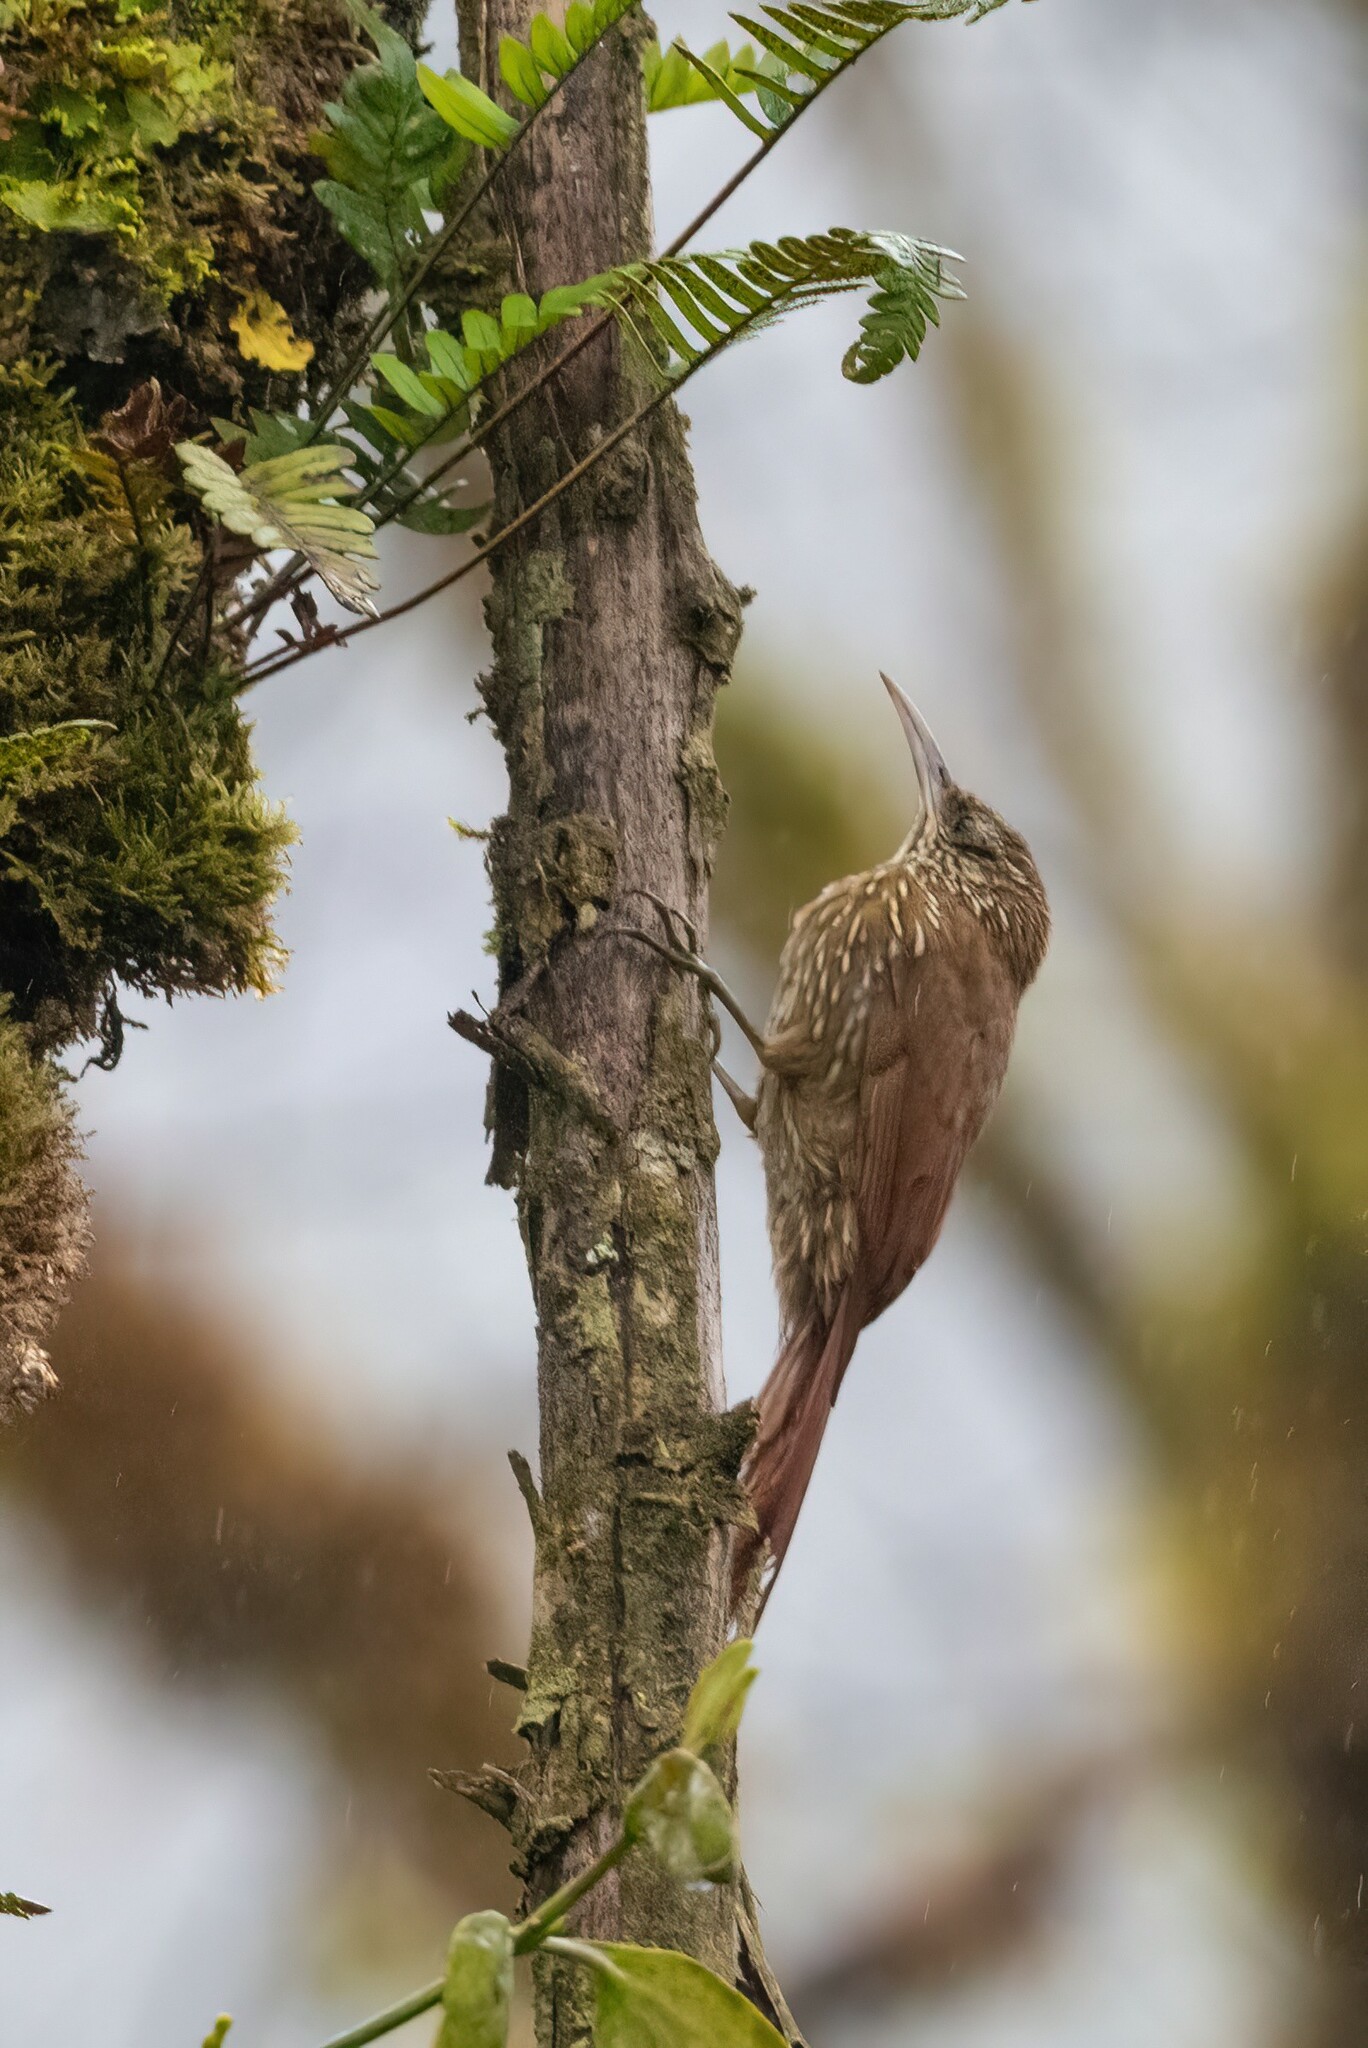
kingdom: Animalia
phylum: Chordata
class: Aves
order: Passeriformes
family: Furnariidae
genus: Lepidocolaptes
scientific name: Lepidocolaptes lacrymiger
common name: Montane woodcreeper
